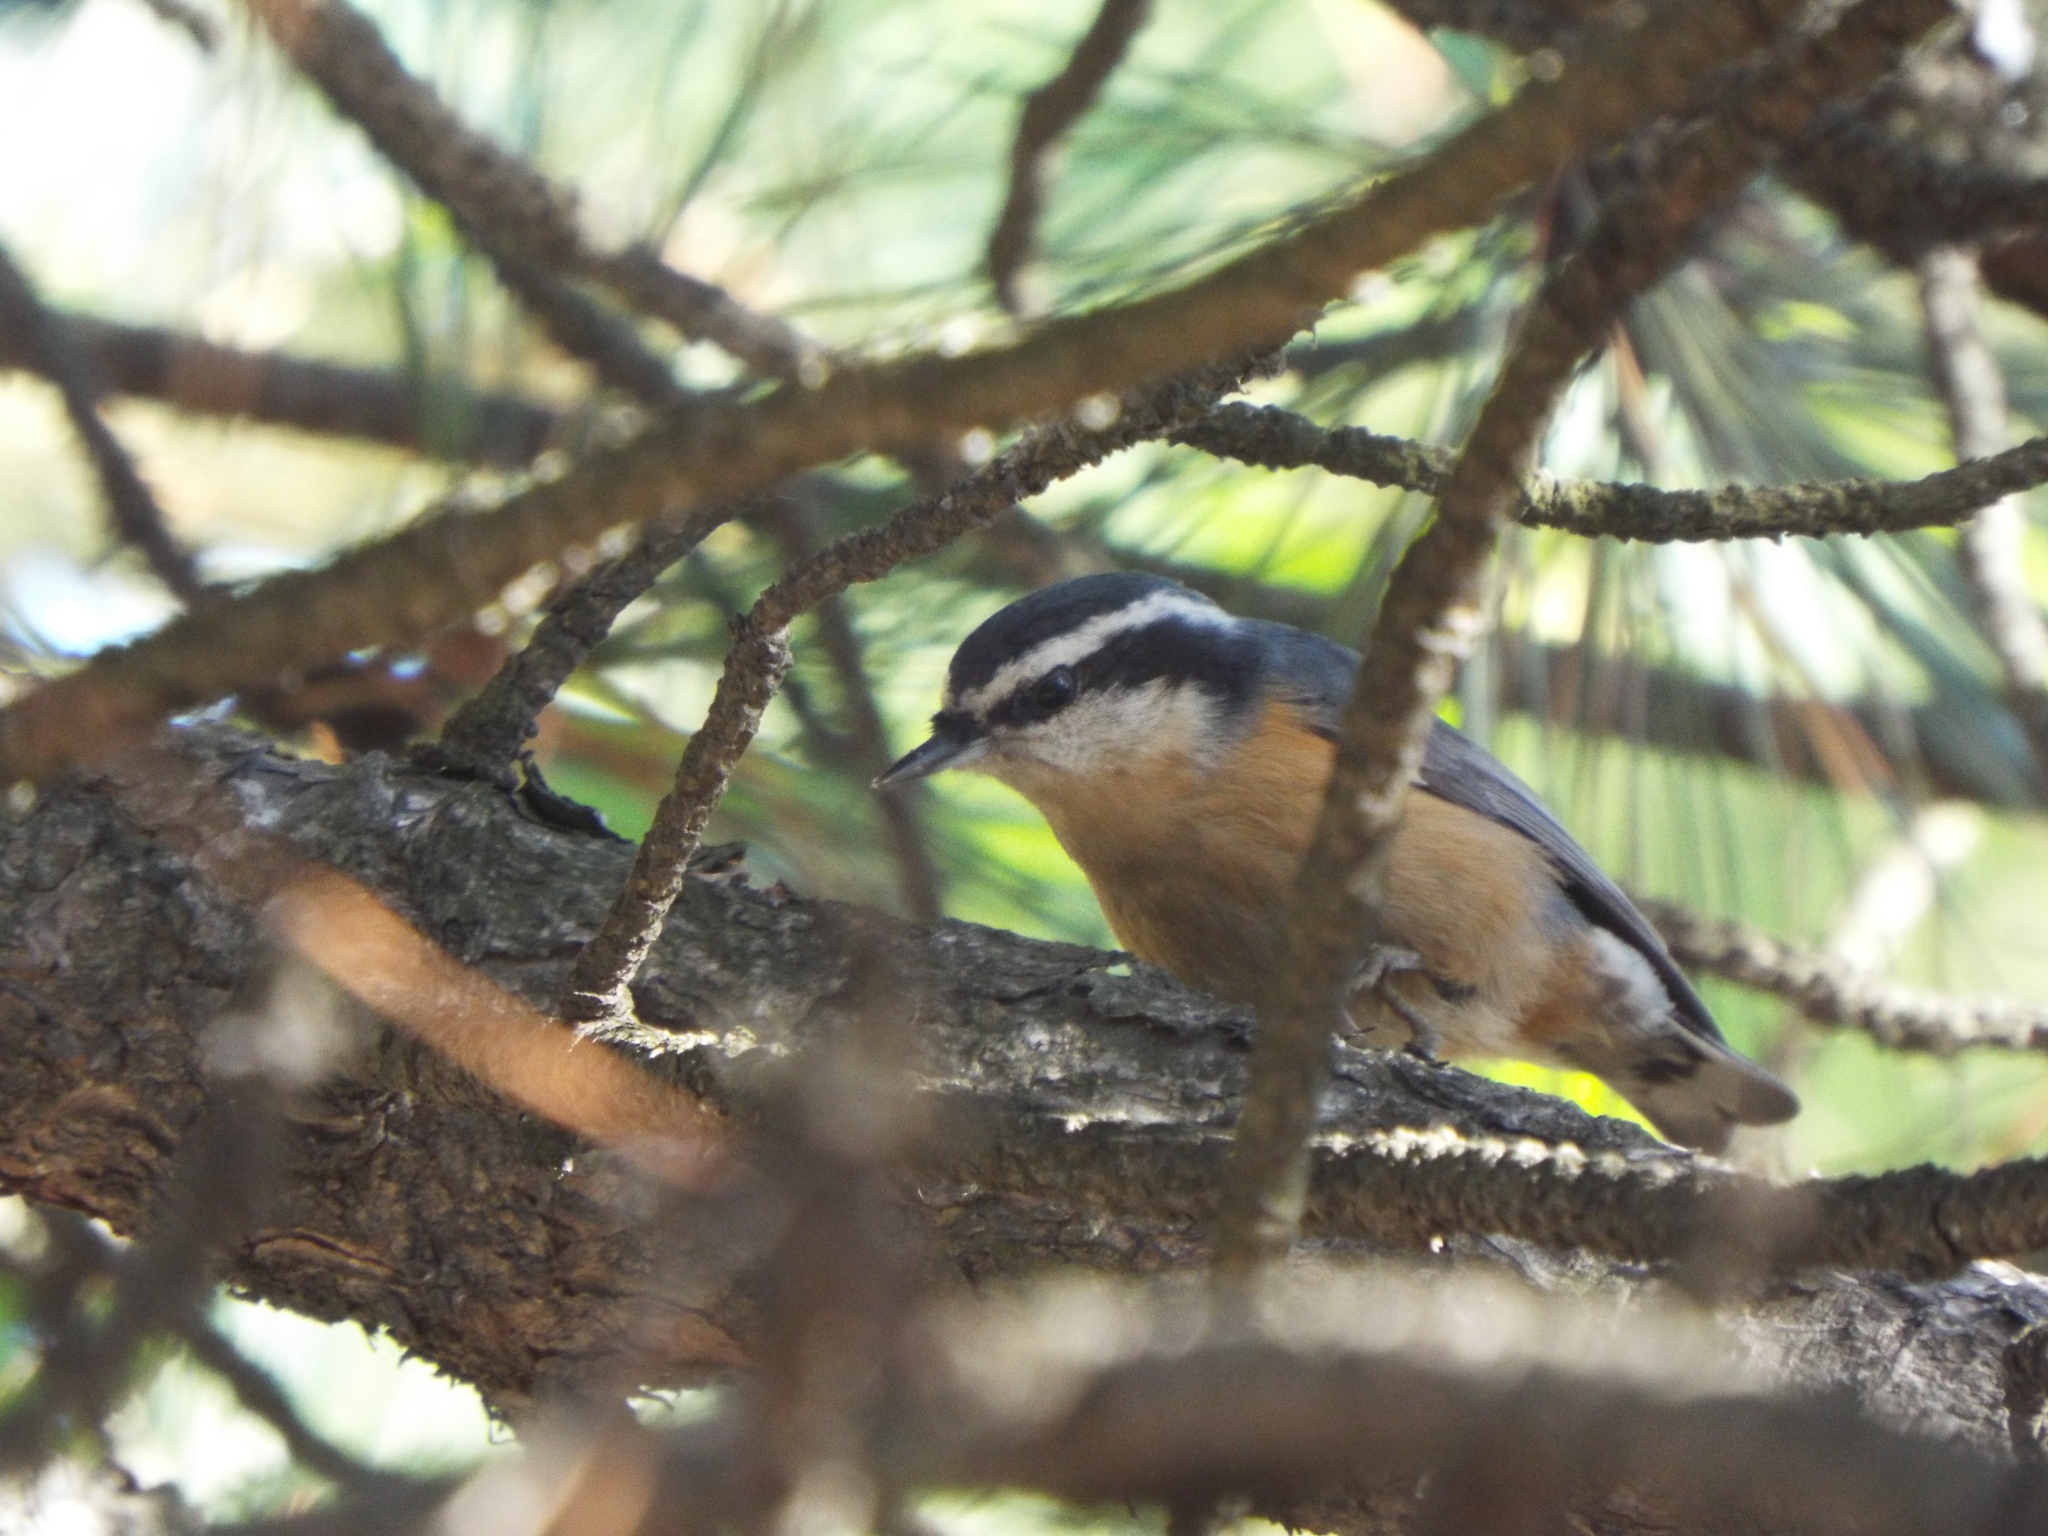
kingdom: Animalia
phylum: Chordata
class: Aves
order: Passeriformes
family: Sittidae
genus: Sitta
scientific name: Sitta canadensis
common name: Red-breasted nuthatch
